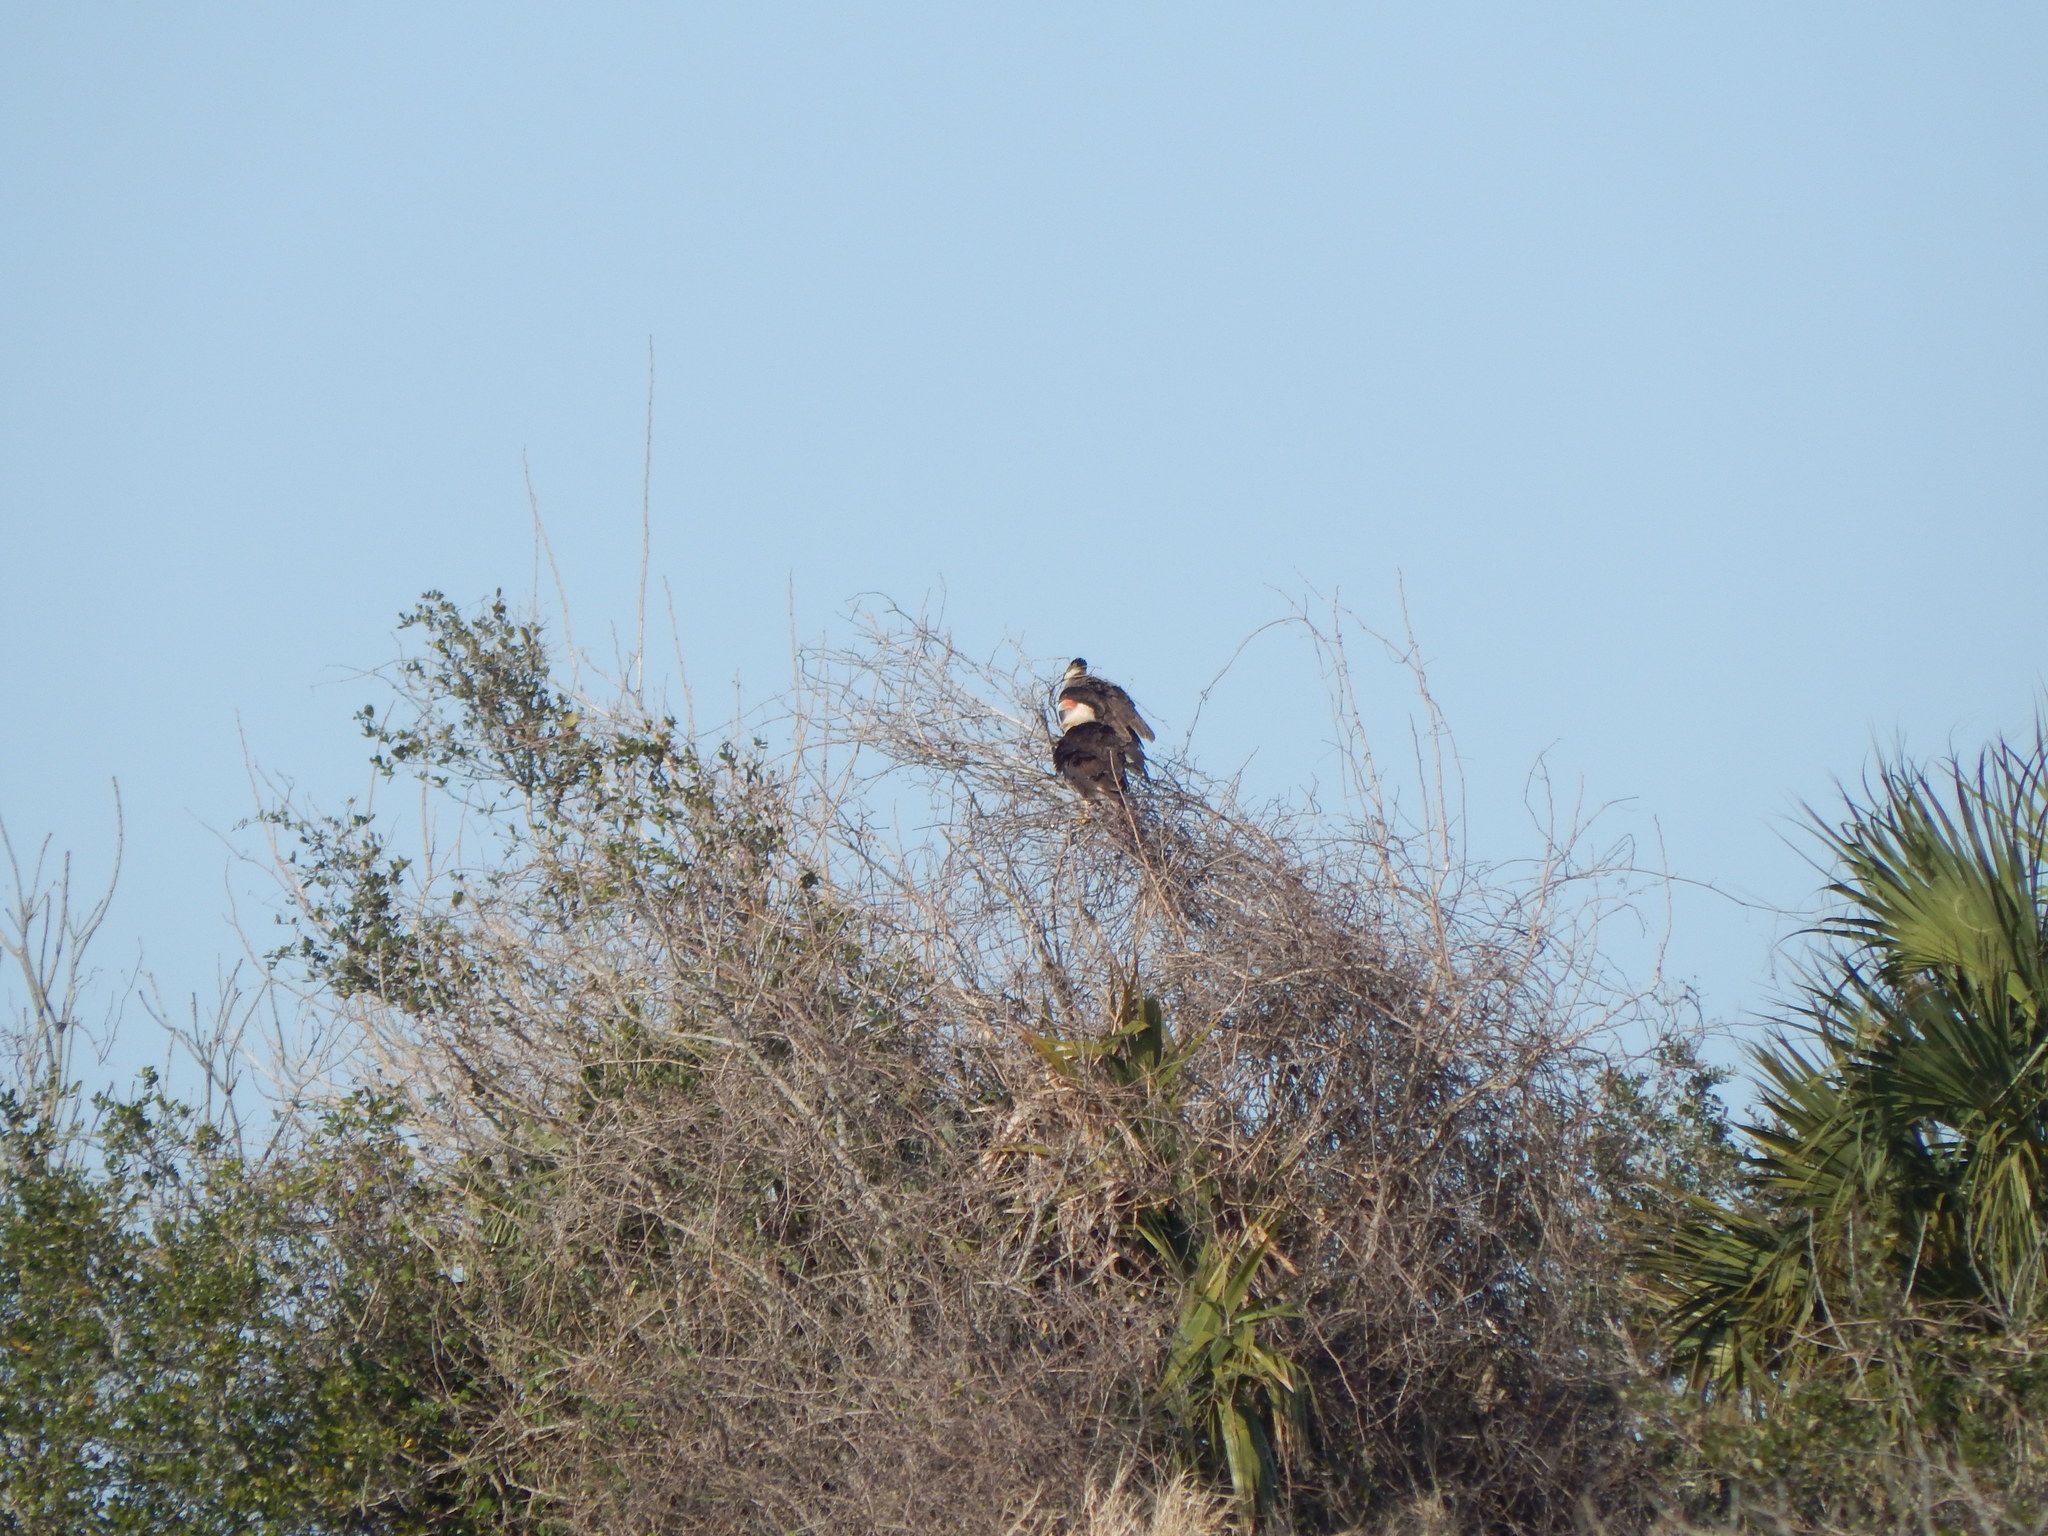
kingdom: Animalia
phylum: Chordata
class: Aves
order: Falconiformes
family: Falconidae
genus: Caracara
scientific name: Caracara plancus
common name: Southern caracara
